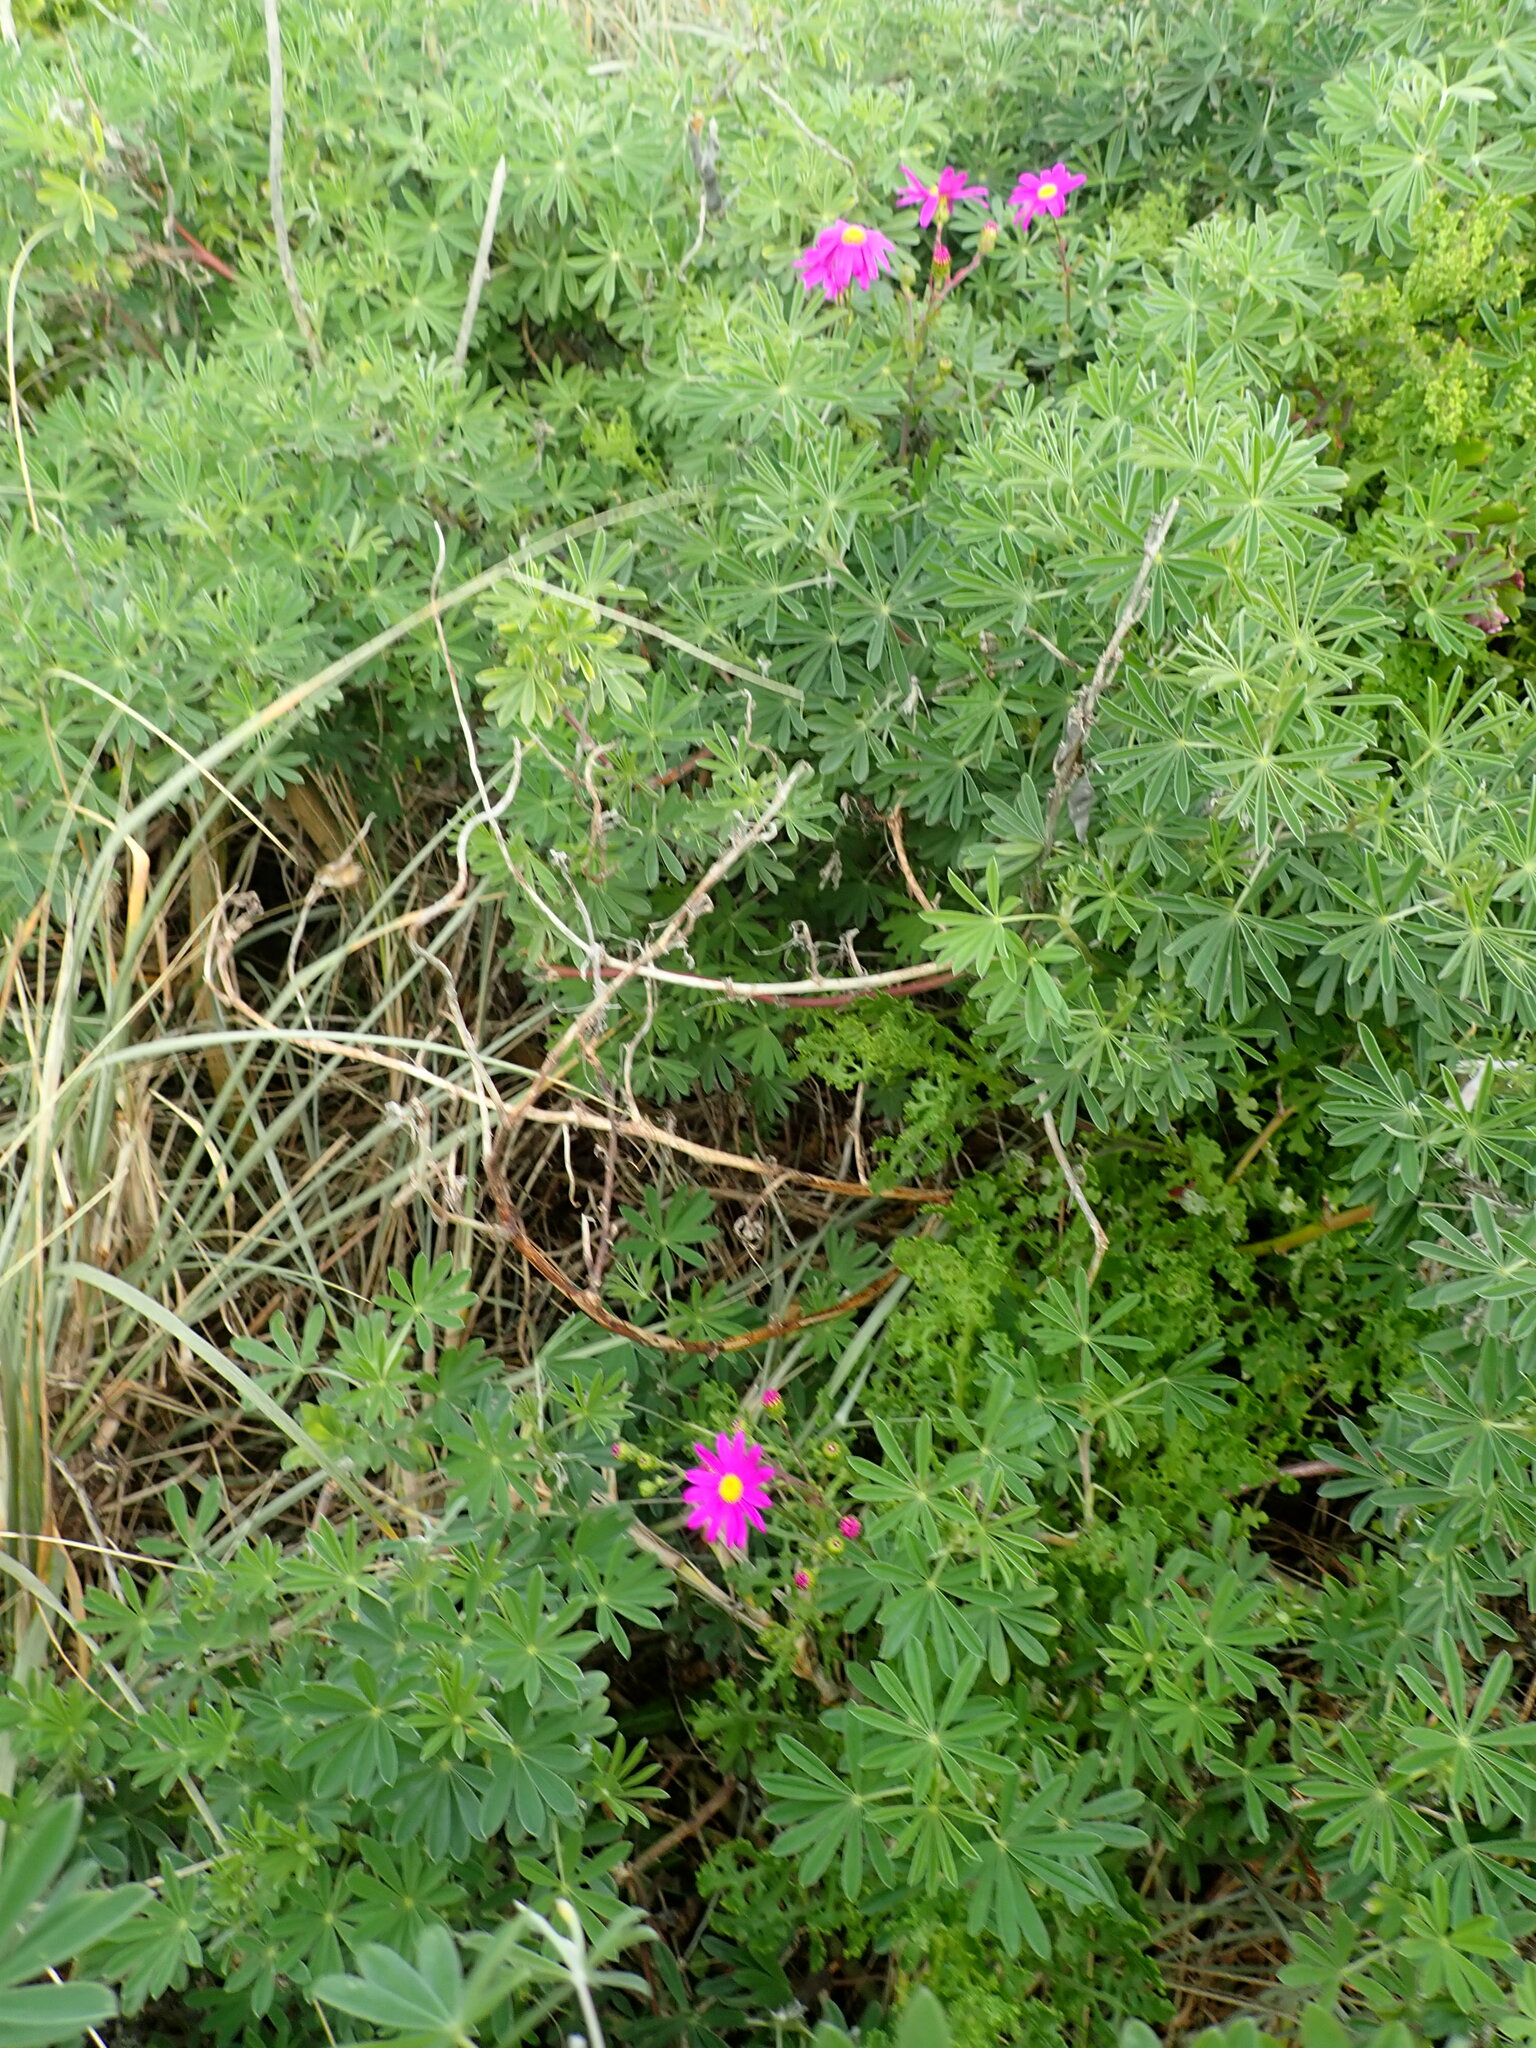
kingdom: Plantae
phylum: Tracheophyta
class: Magnoliopsida
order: Asterales
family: Asteraceae
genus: Senecio
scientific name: Senecio elegans
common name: Purple groundsel
